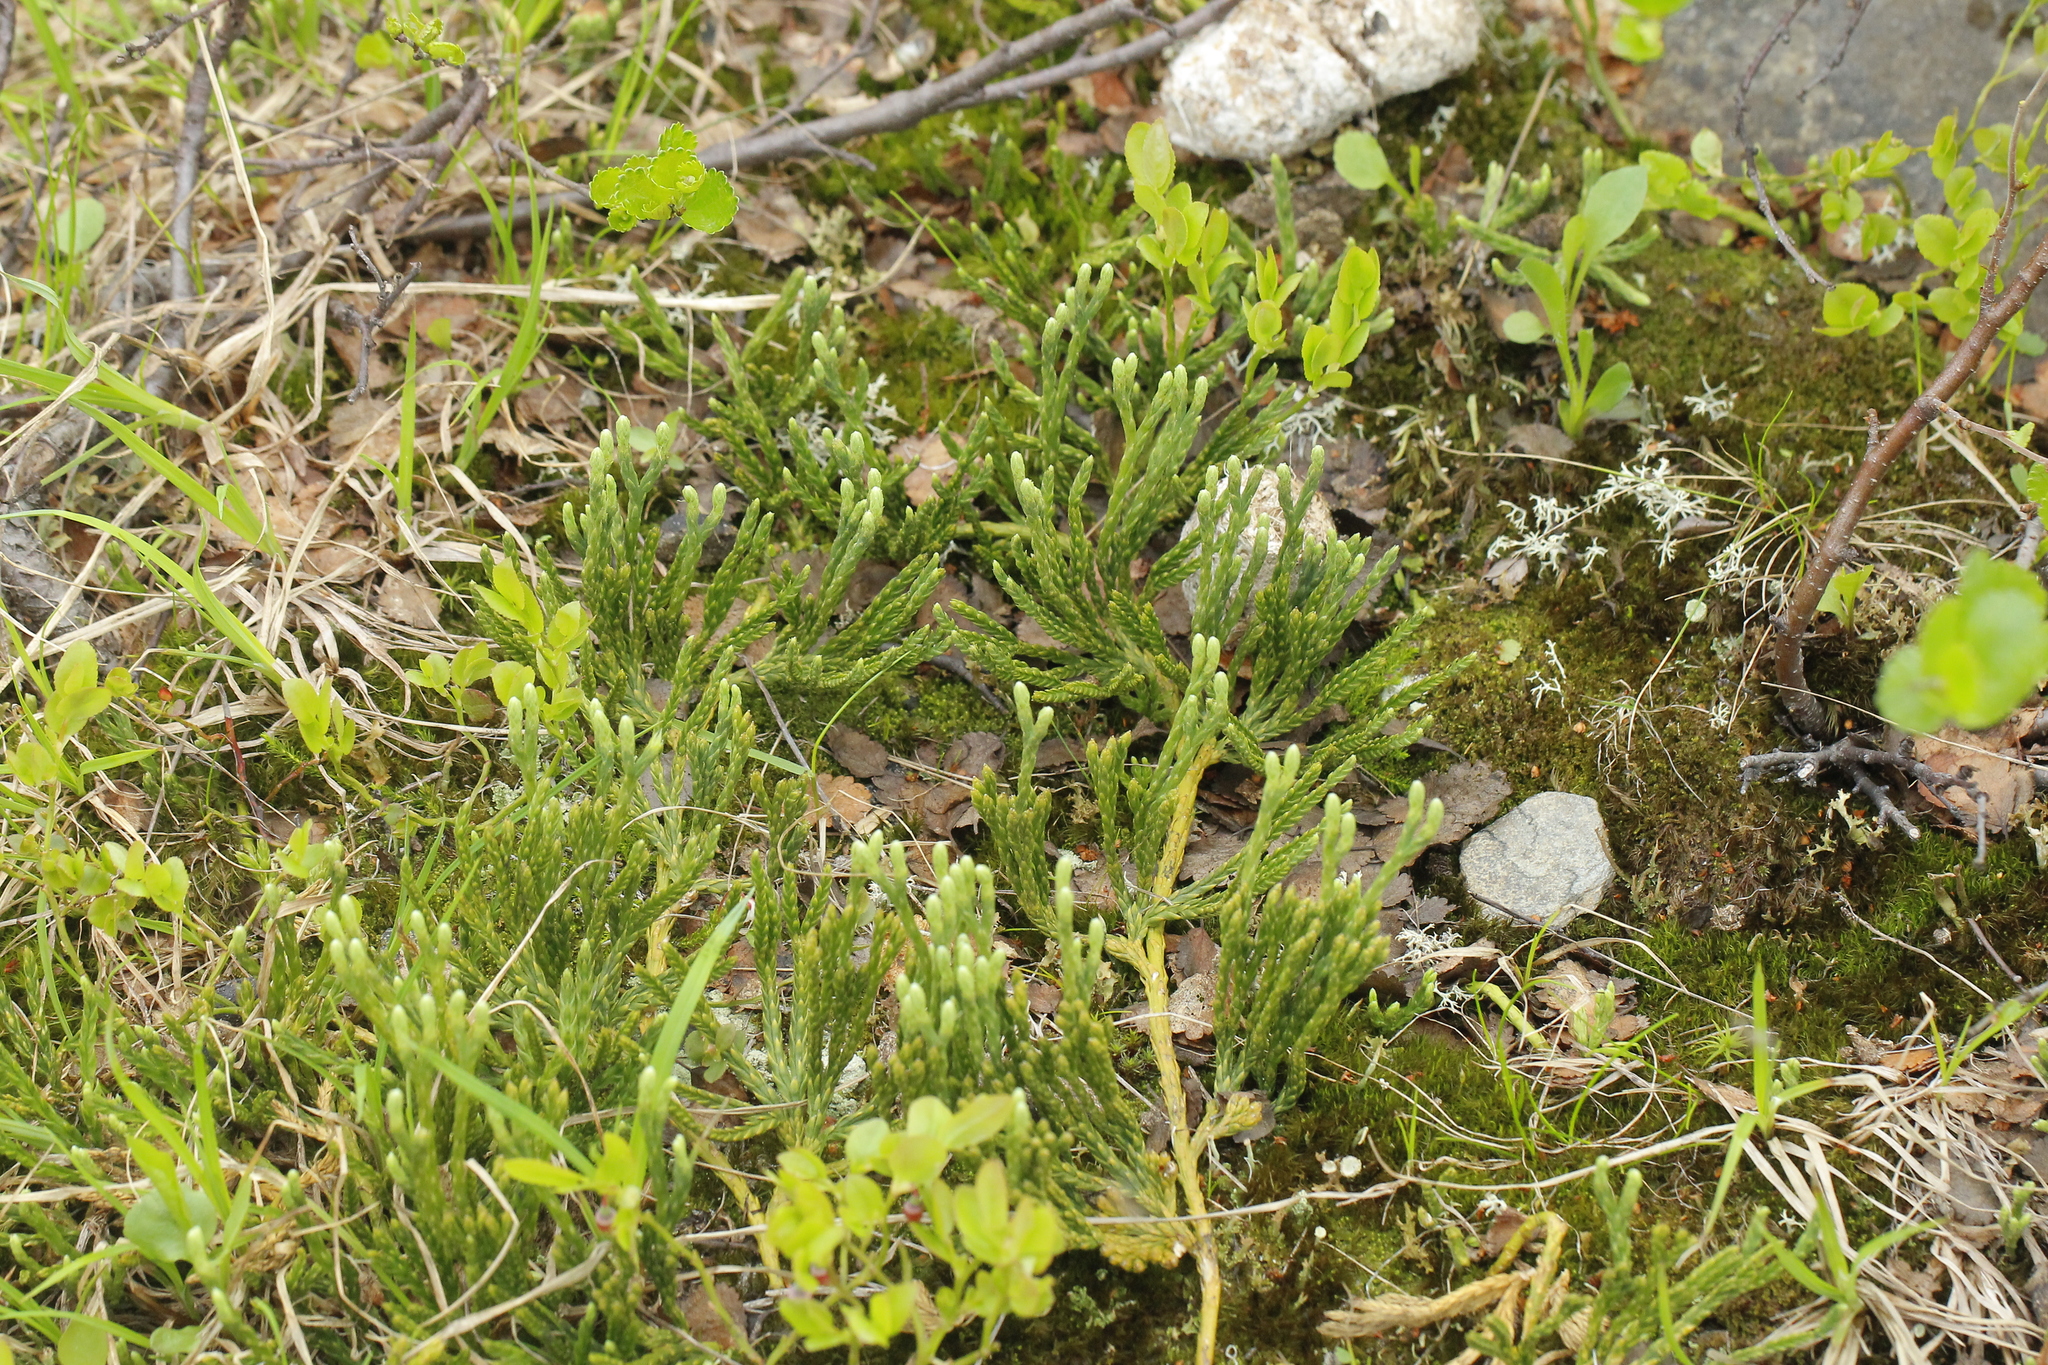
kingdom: Plantae
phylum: Tracheophyta
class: Lycopodiopsida
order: Lycopodiales
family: Lycopodiaceae
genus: Diphasiastrum
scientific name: Diphasiastrum alpinum
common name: Alpine clubmoss
